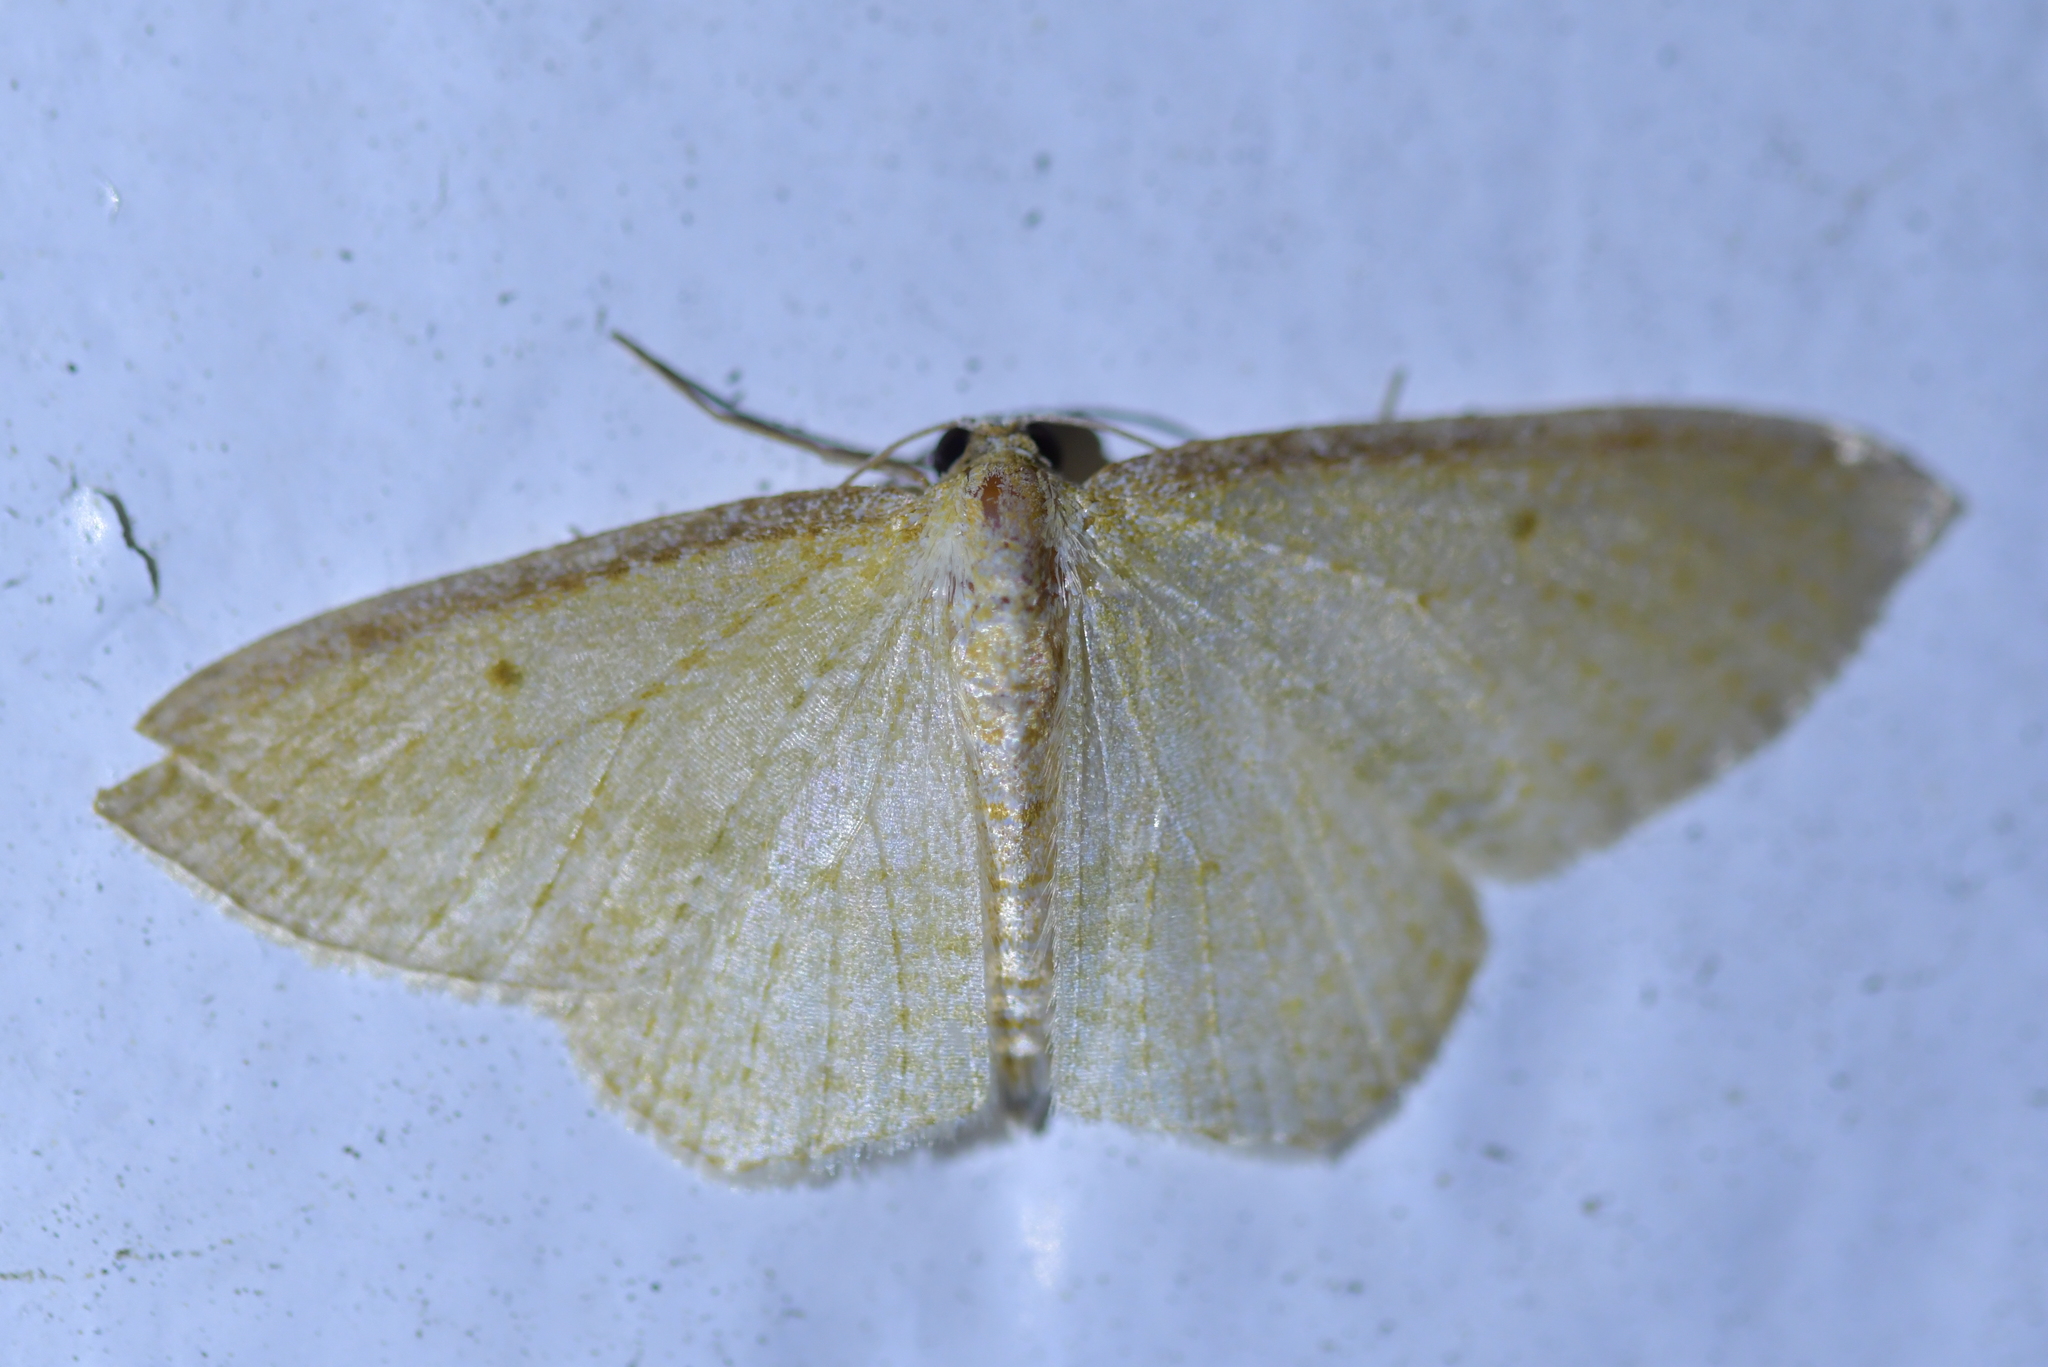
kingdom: Animalia
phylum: Arthropoda
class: Insecta
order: Lepidoptera
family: Geometridae
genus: Poecilasthena
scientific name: Poecilasthena pulchraria
